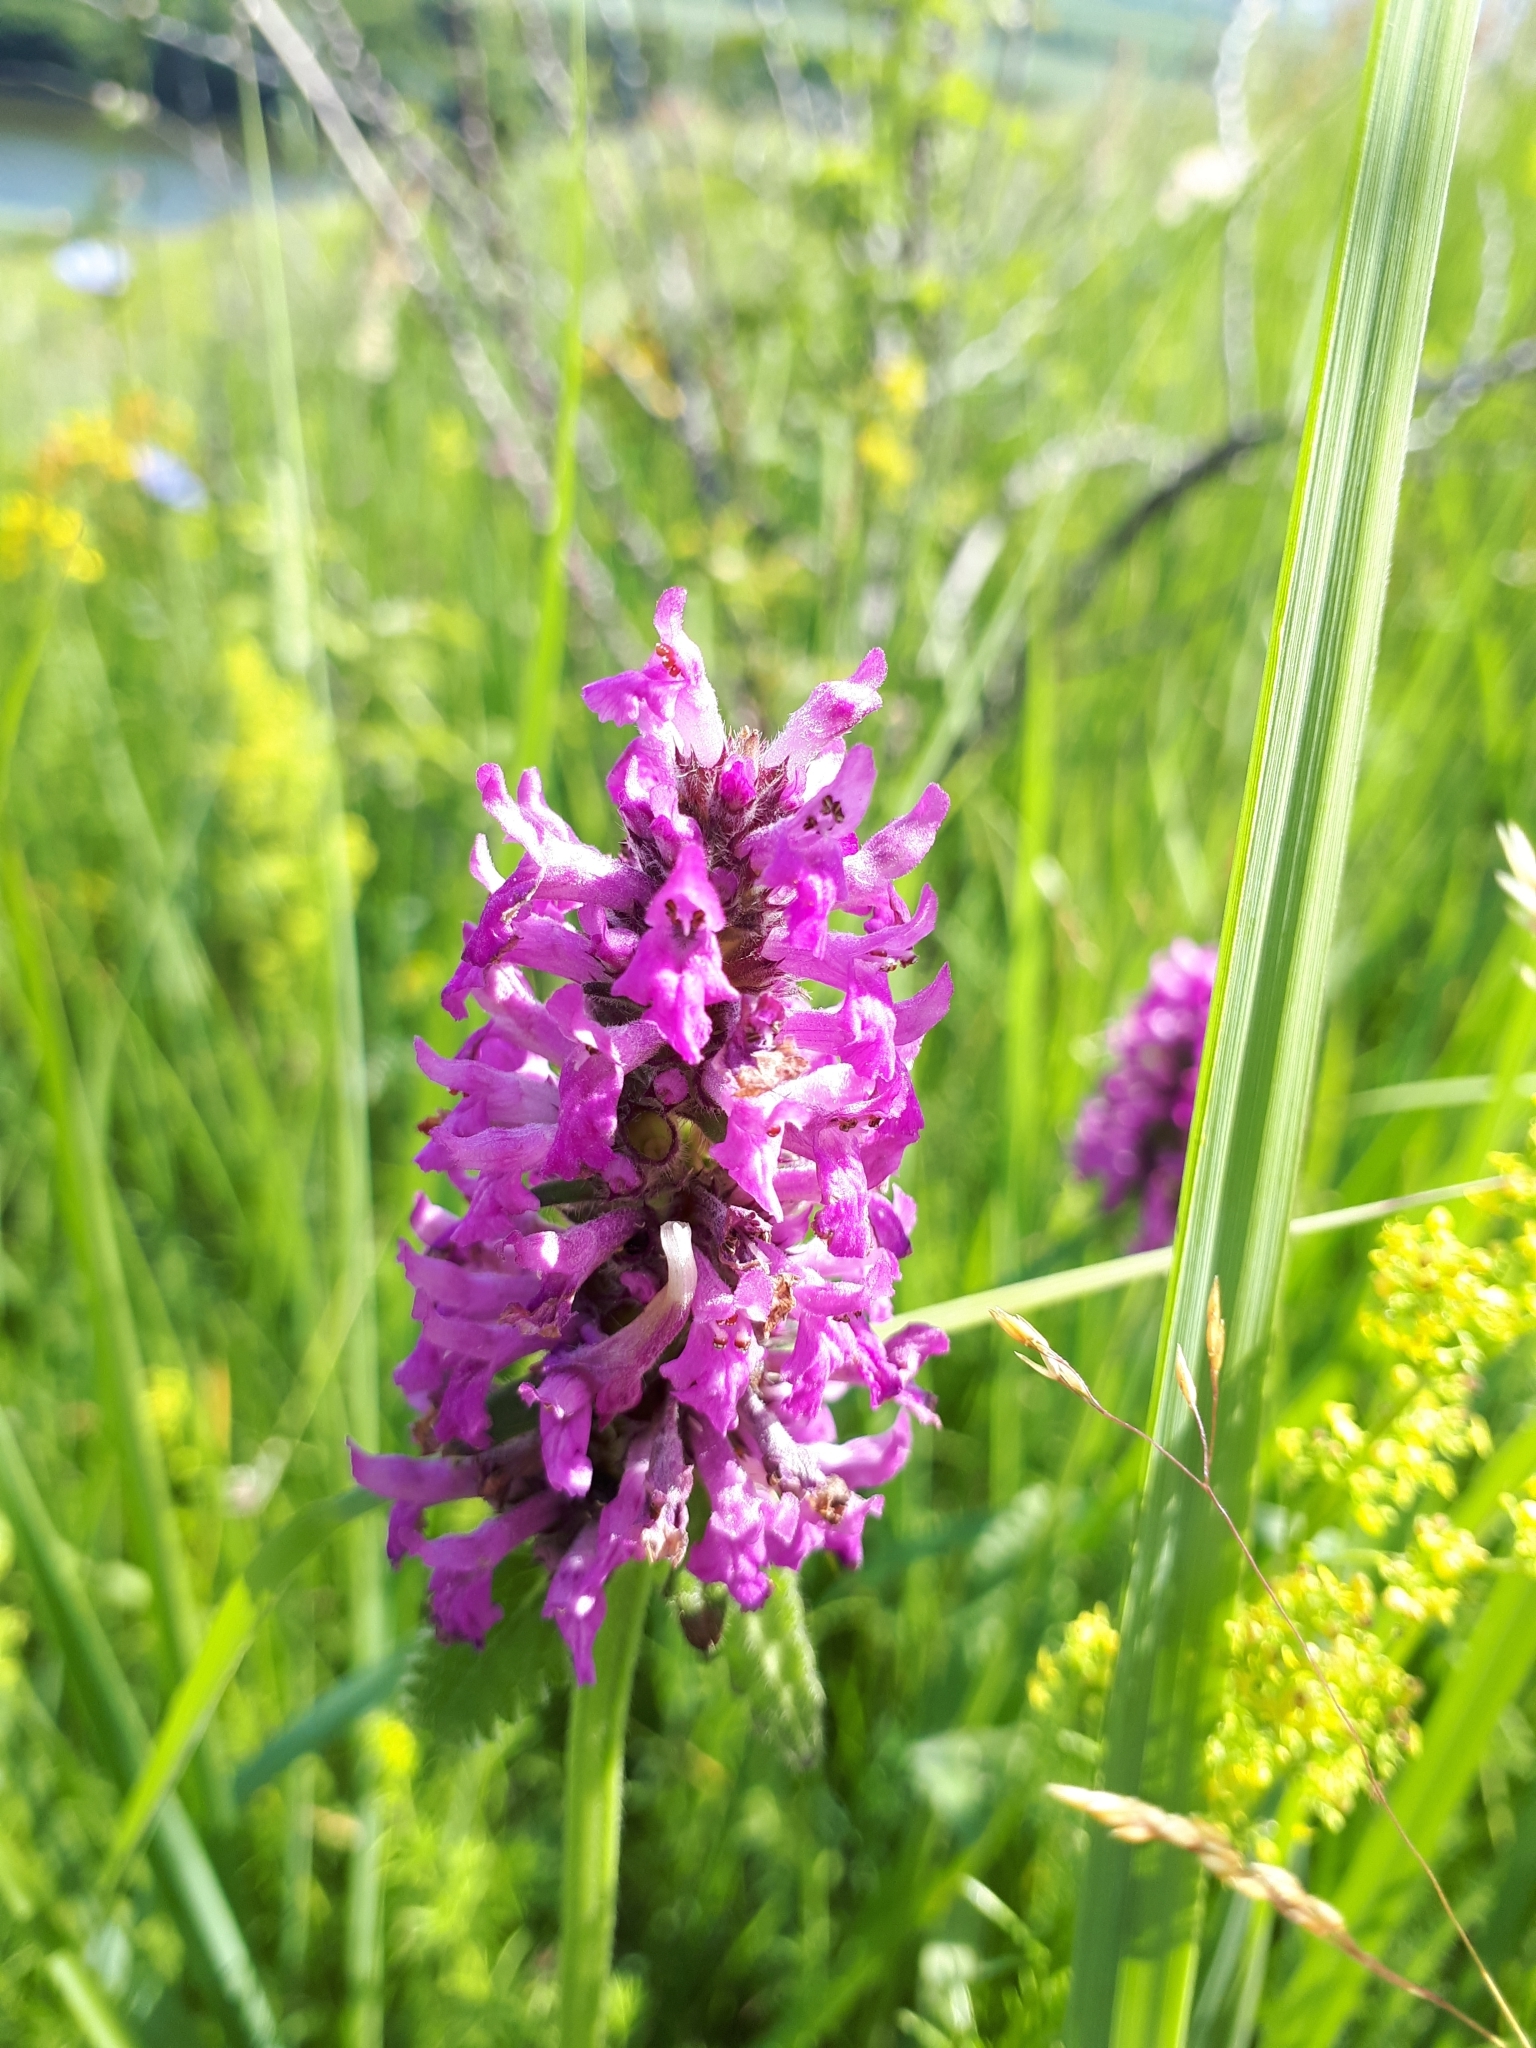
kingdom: Plantae
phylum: Tracheophyta
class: Magnoliopsida
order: Lamiales
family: Lamiaceae
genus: Betonica
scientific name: Betonica officinalis
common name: Bishop's-wort
